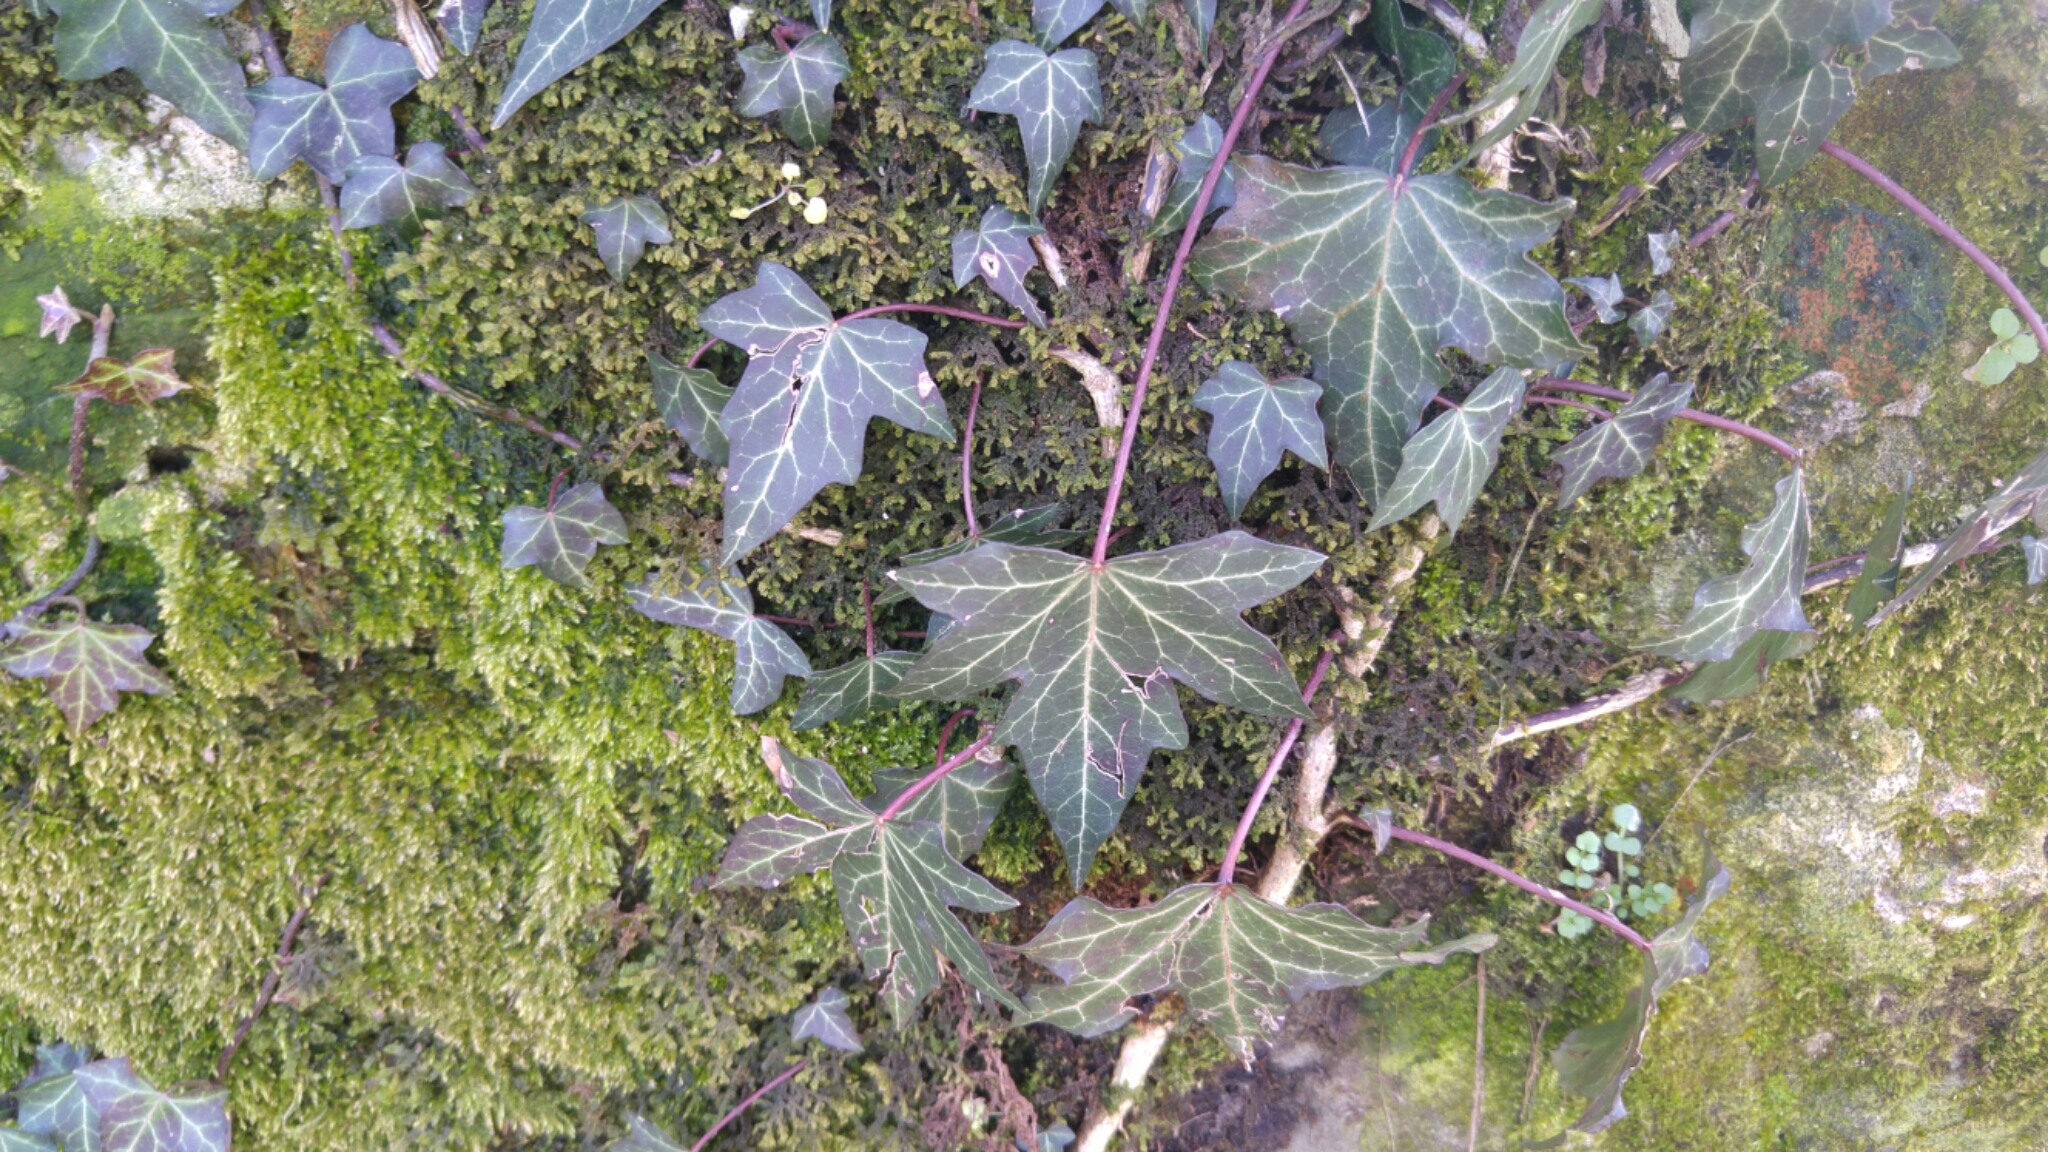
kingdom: Plantae
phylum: Tracheophyta
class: Magnoliopsida
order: Apiales
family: Araliaceae
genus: Hedera
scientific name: Hedera helix
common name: Ivy
